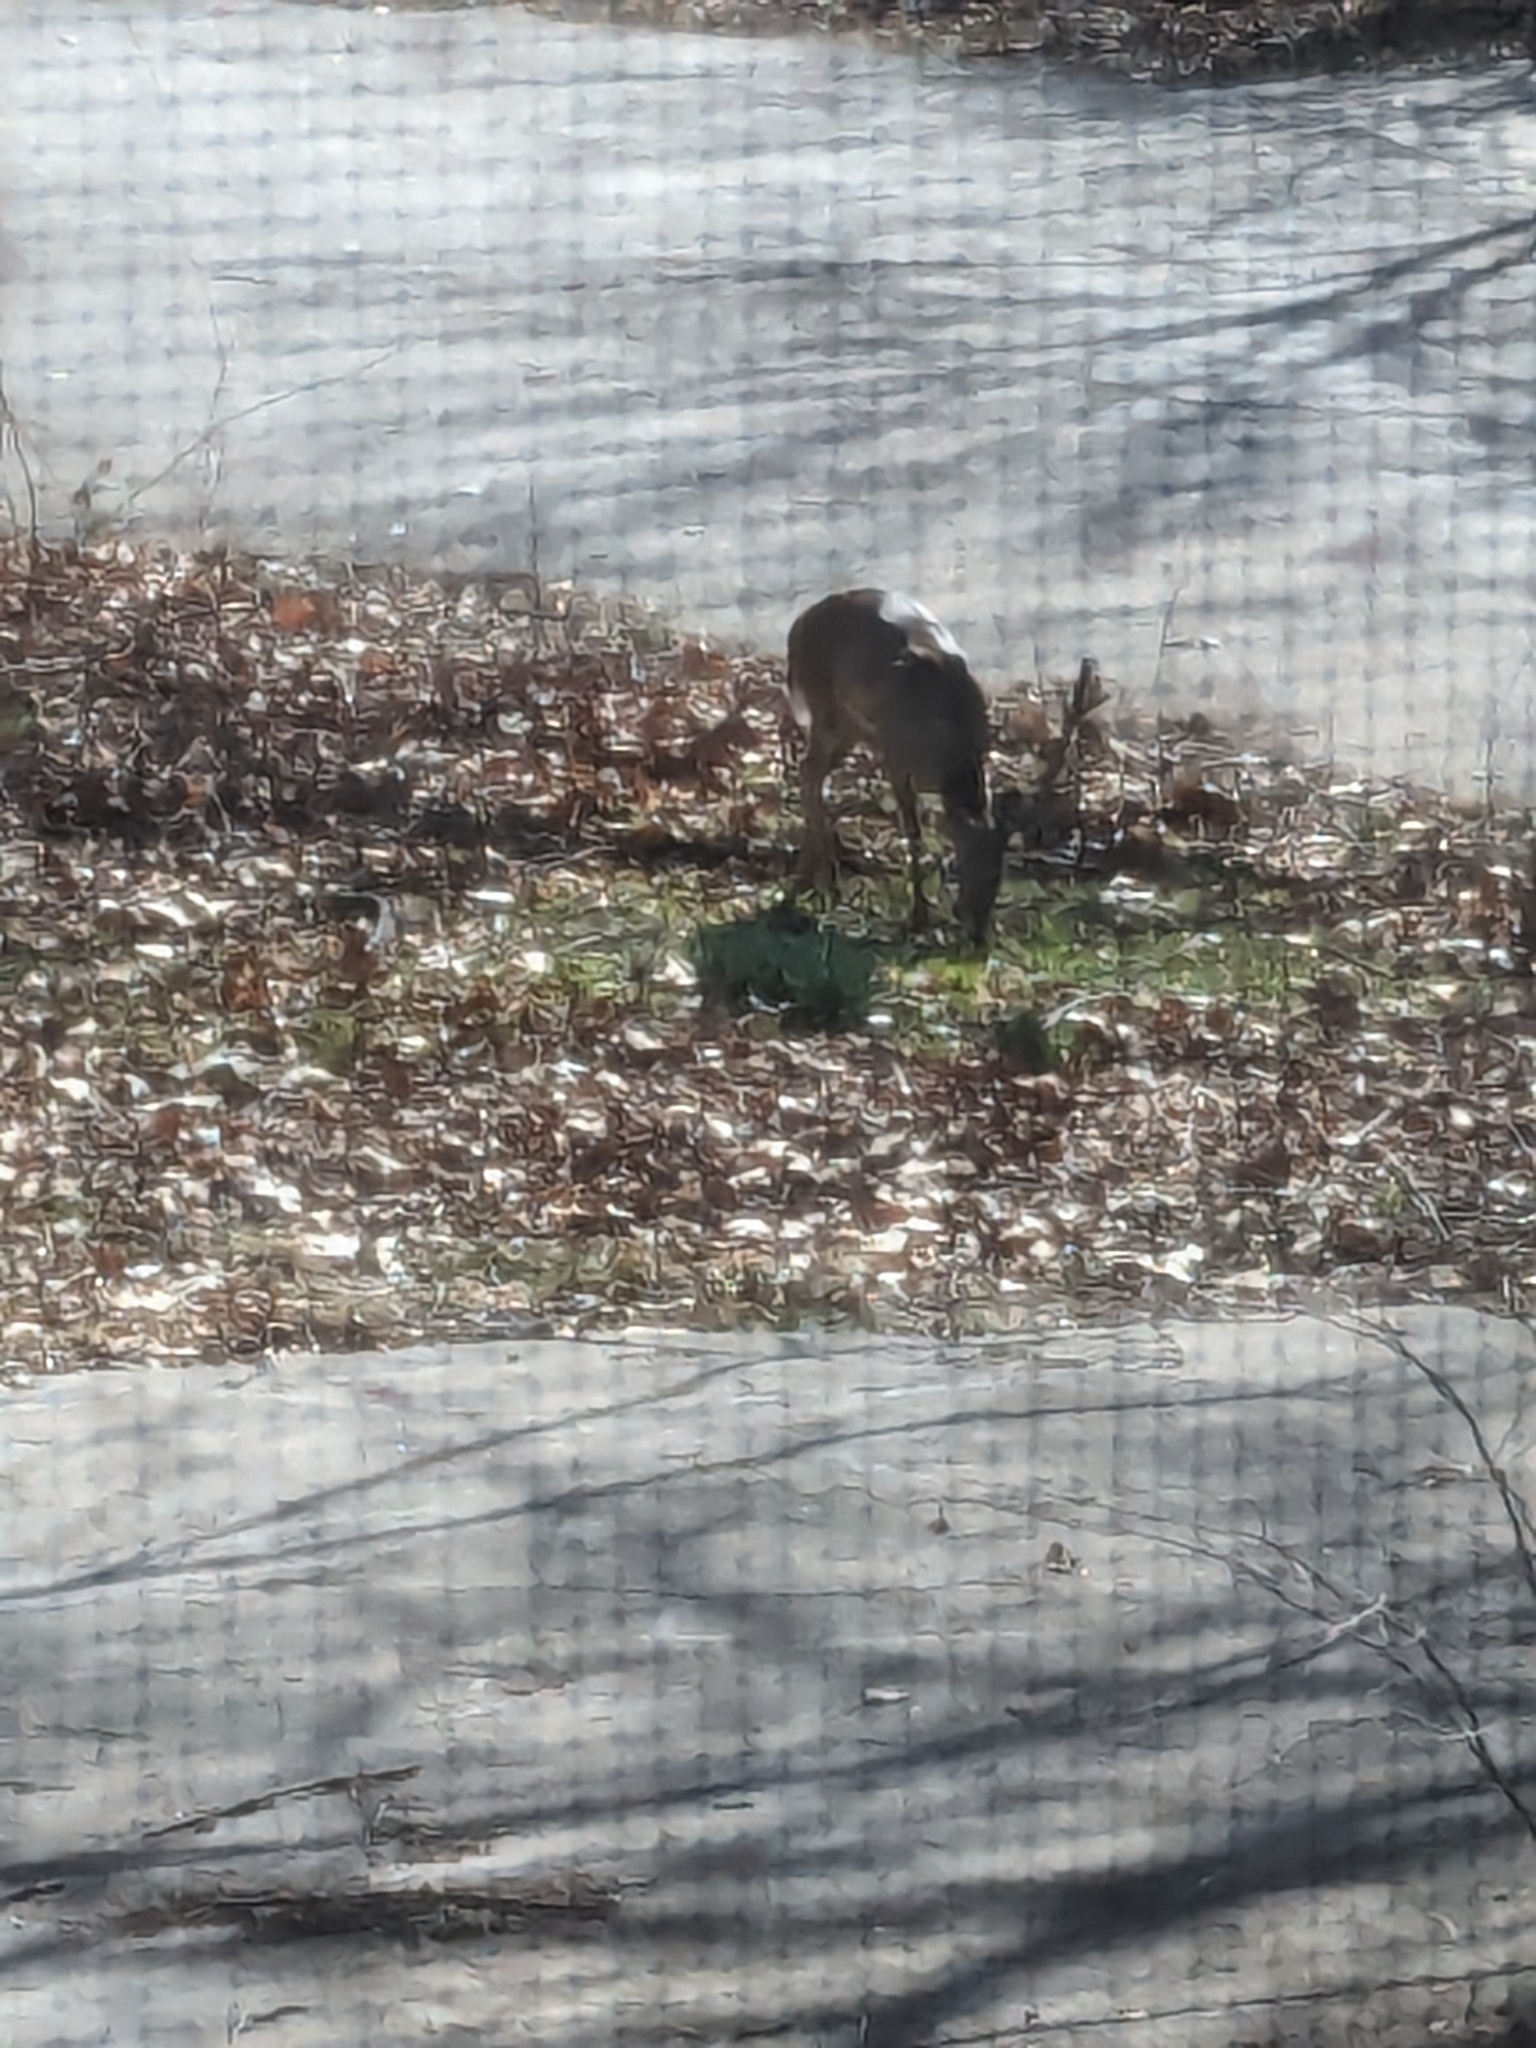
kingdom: Animalia
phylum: Chordata
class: Mammalia
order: Artiodactyla
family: Cervidae
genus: Odocoileus
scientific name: Odocoileus virginianus
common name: White-tailed deer
